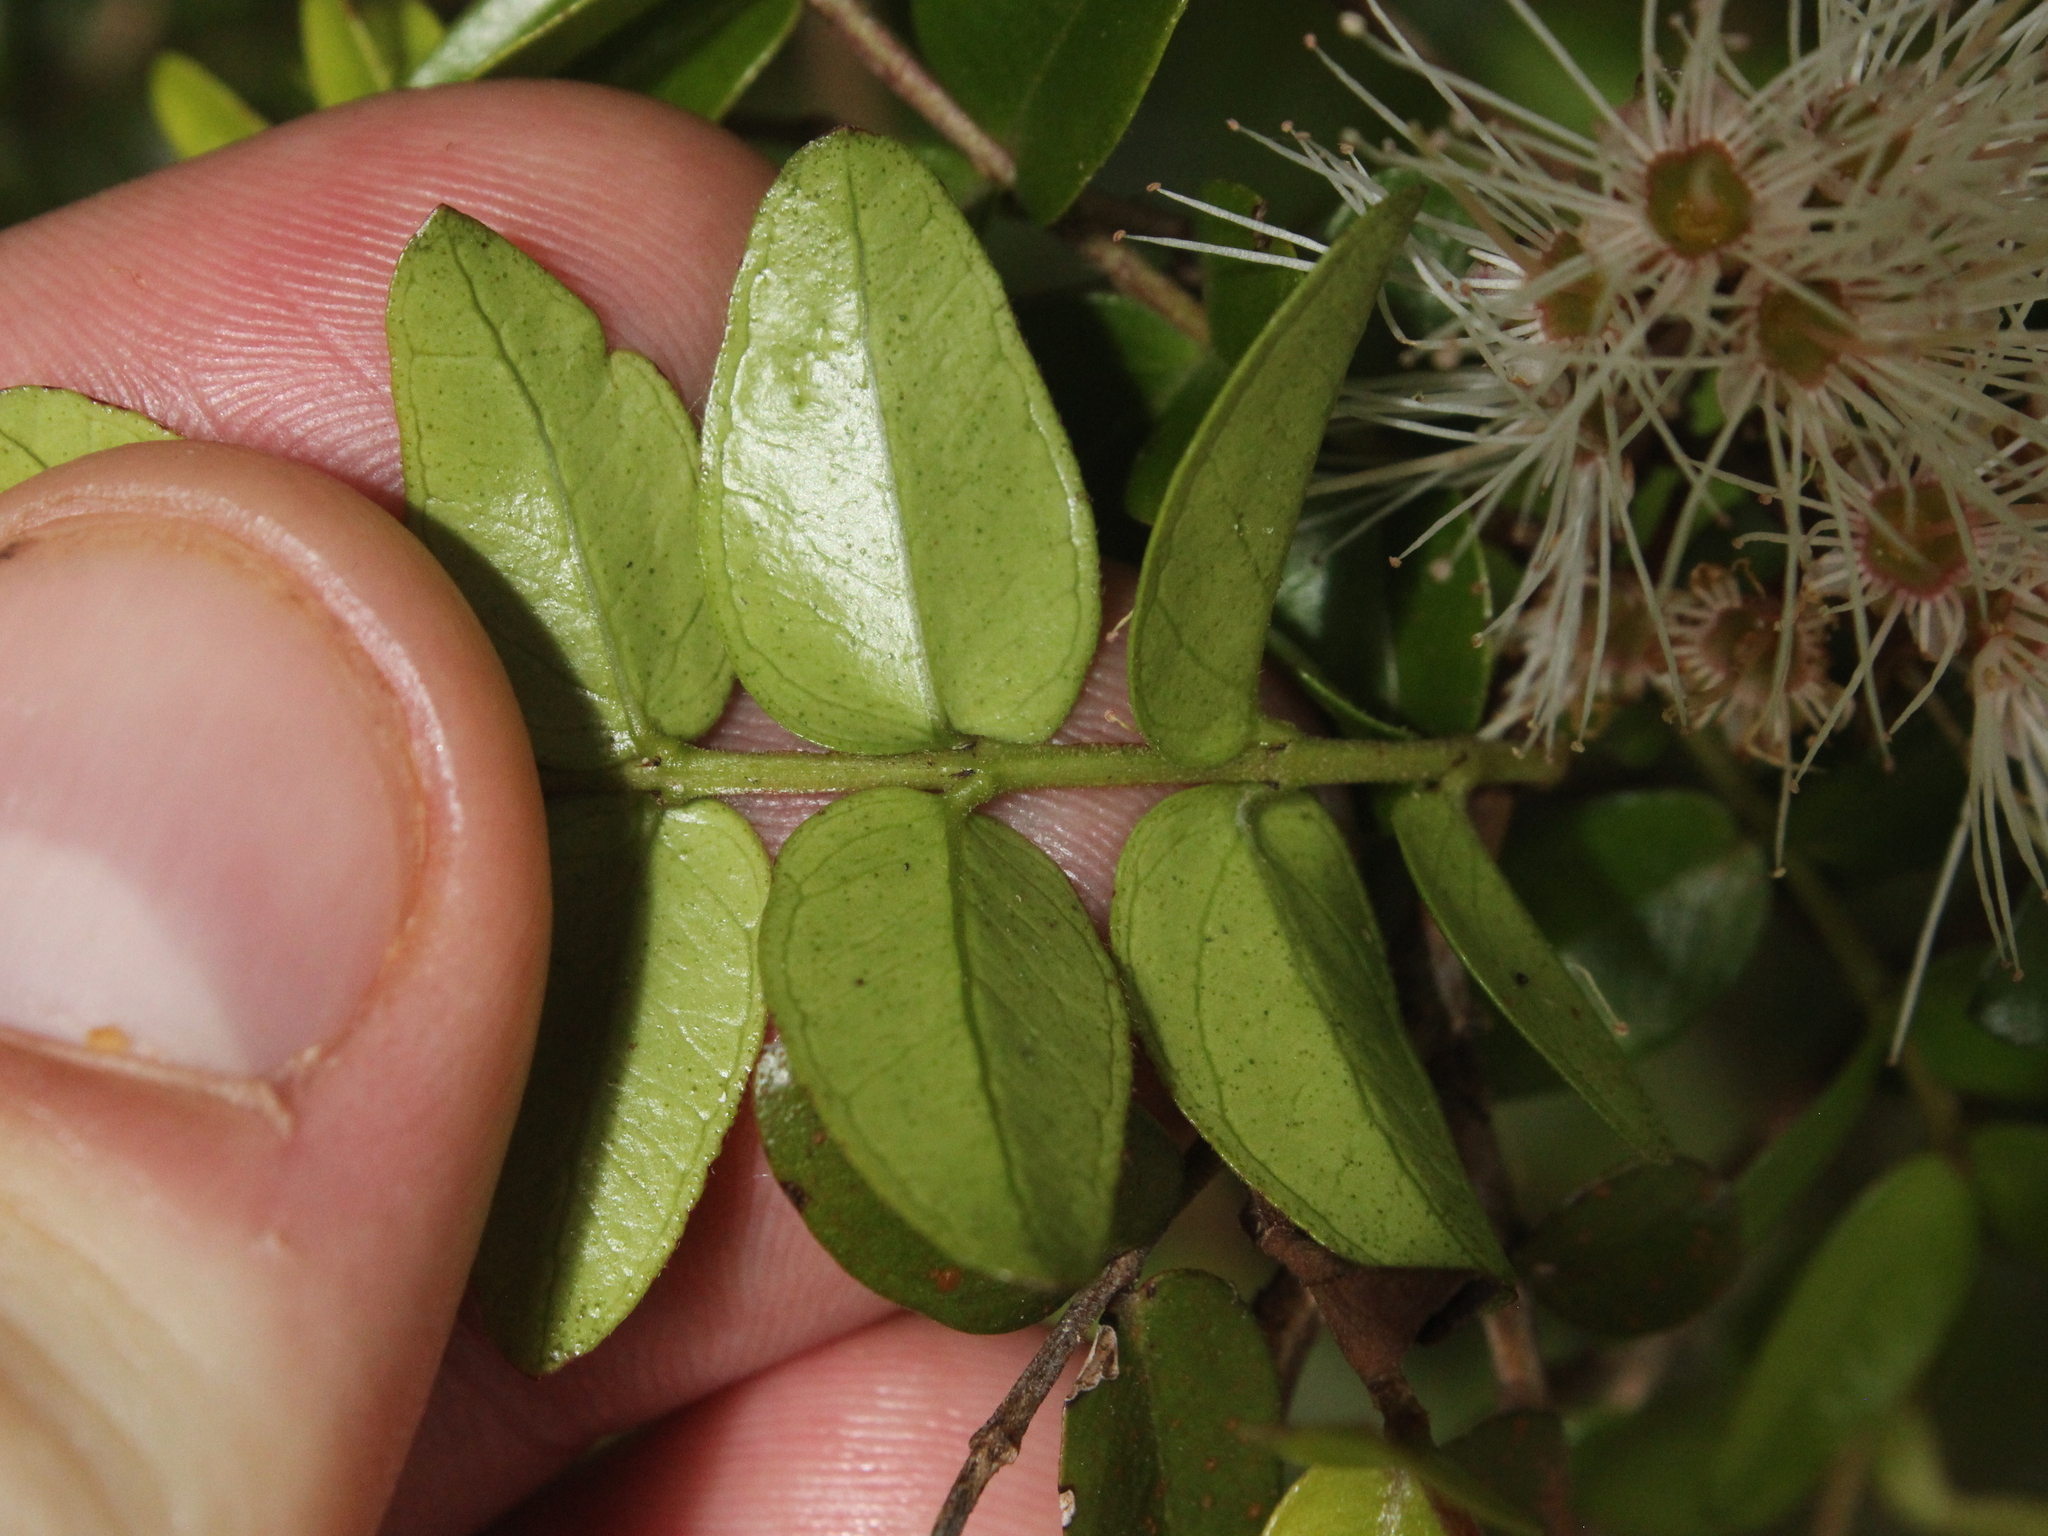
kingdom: Plantae
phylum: Tracheophyta
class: Magnoliopsida
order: Myrtales
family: Myrtaceae
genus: Metrosideros
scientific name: Metrosideros diffusa
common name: Small ratavine
